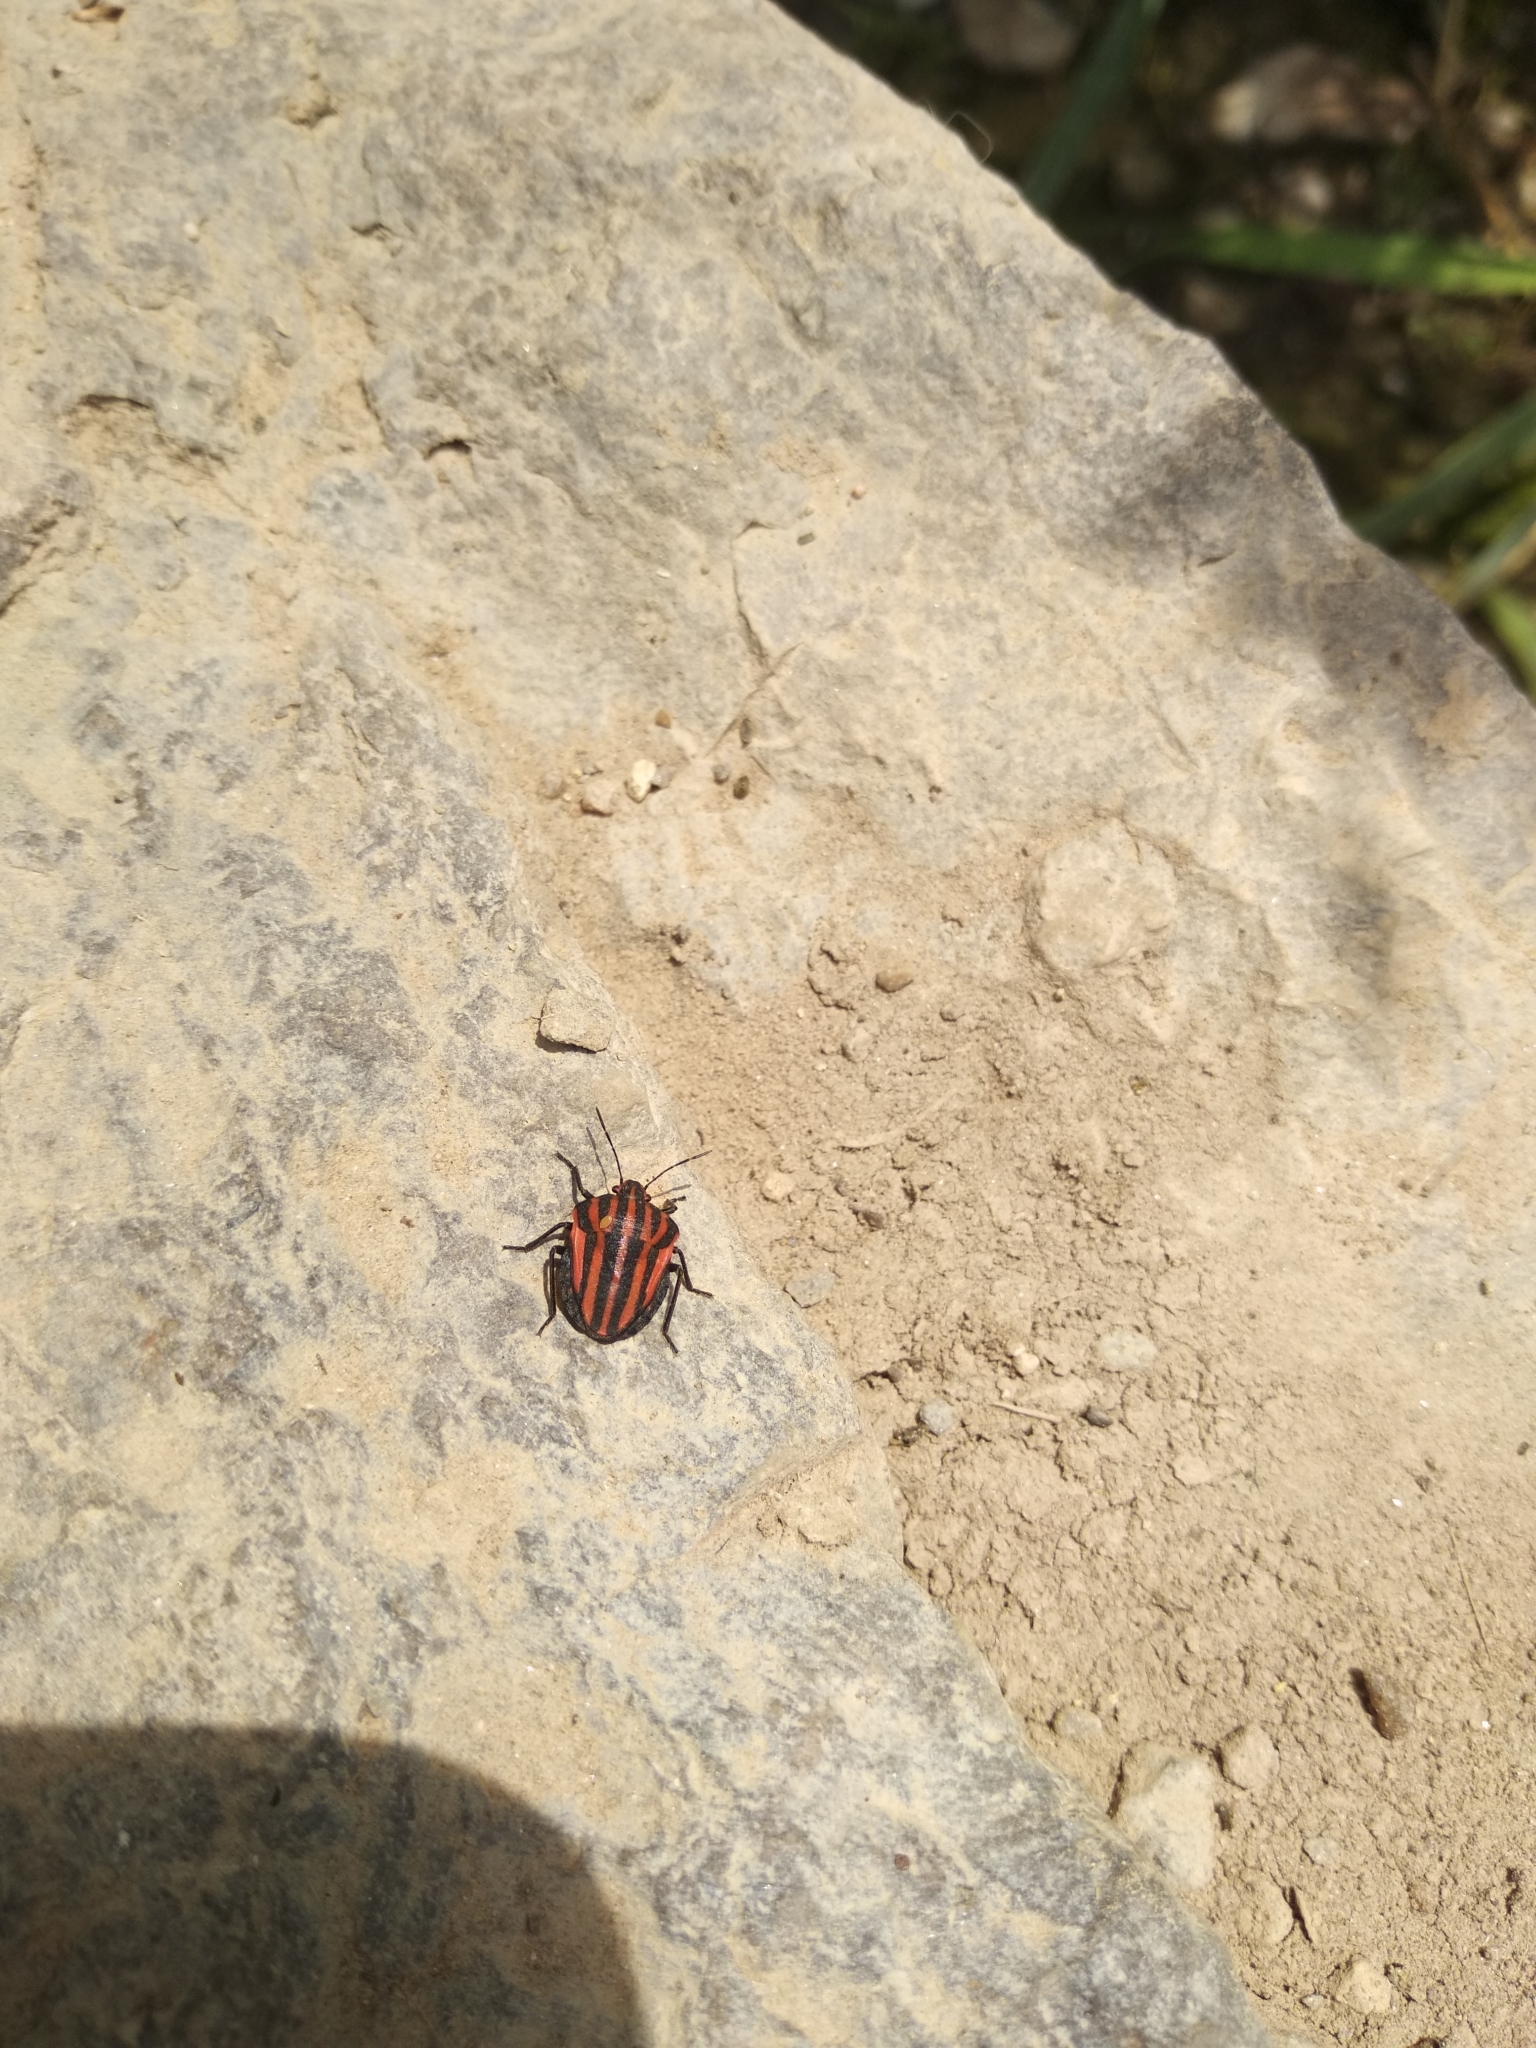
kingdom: Animalia
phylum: Arthropoda
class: Insecta
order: Hemiptera
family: Pentatomidae
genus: Graphosoma
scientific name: Graphosoma italicum
